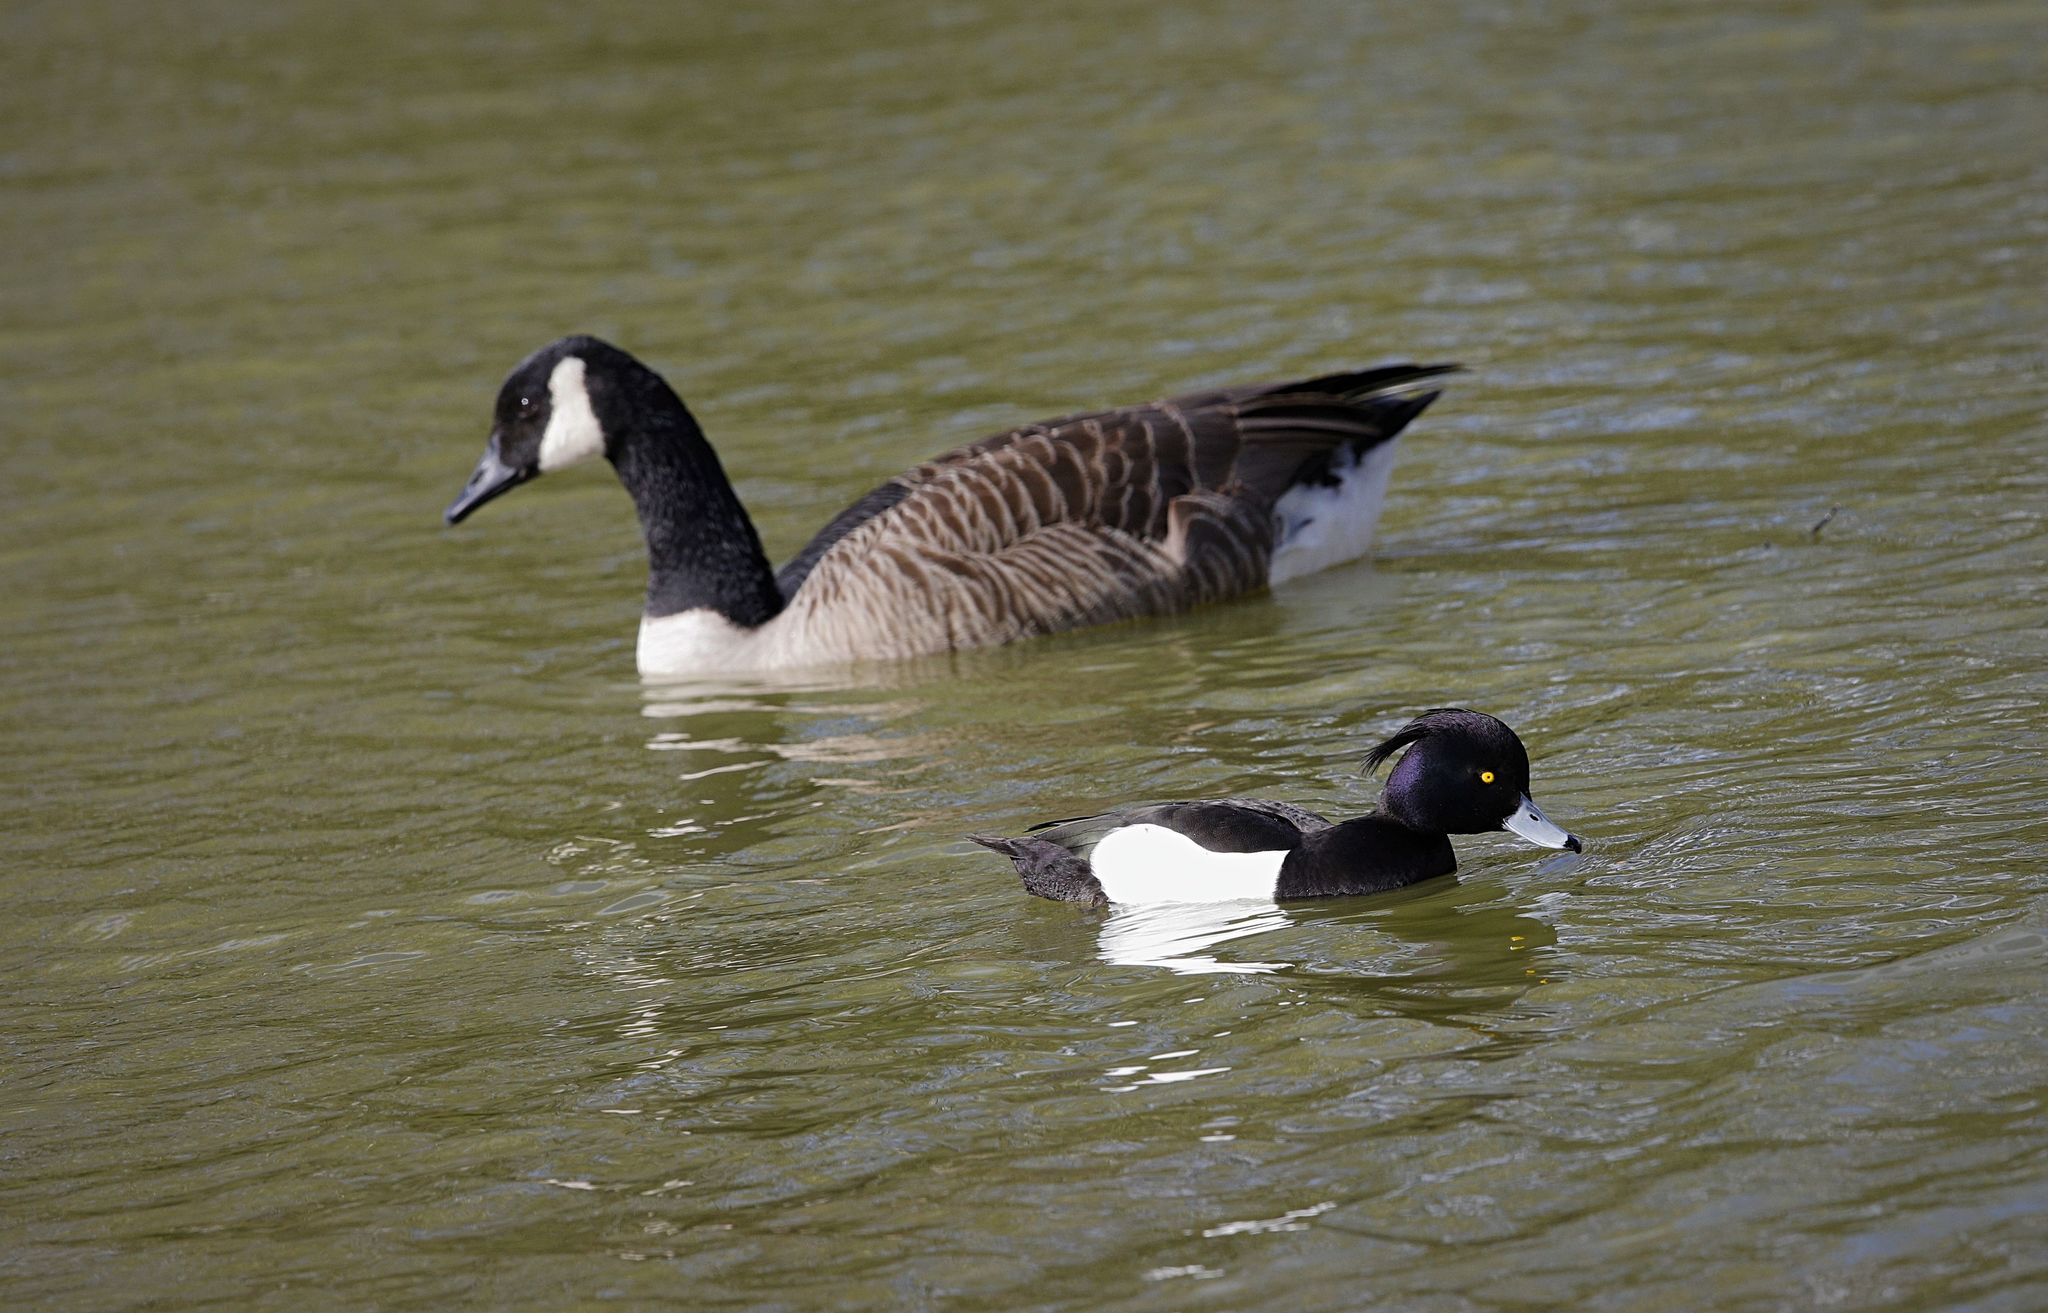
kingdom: Animalia
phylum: Chordata
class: Aves
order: Anseriformes
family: Anatidae
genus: Aythya
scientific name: Aythya fuligula
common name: Tufted duck
